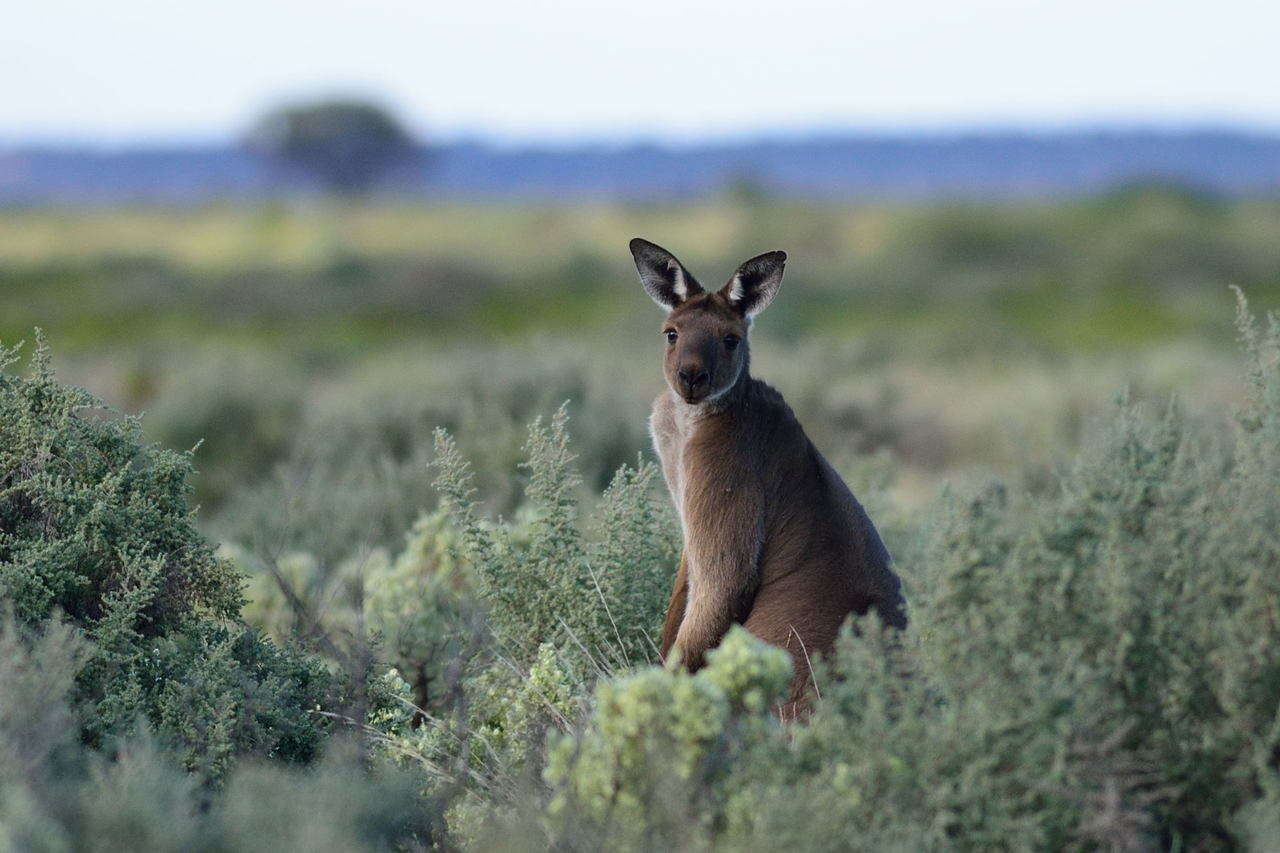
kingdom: Animalia
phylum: Chordata
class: Mammalia
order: Diprotodontia
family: Macropodidae
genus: Macropus
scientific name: Macropus fuliginosus
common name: Western grey kangaroo
